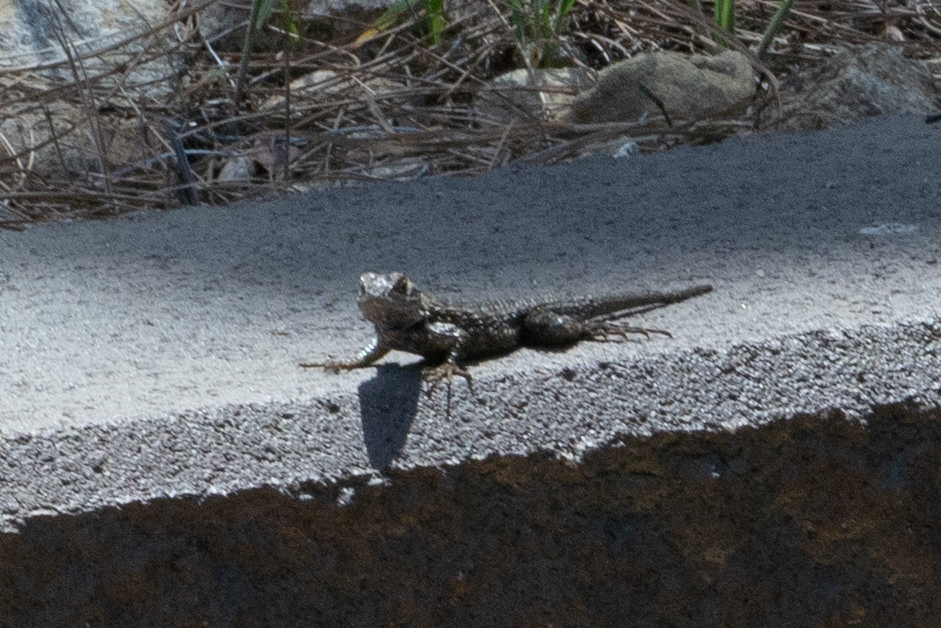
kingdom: Animalia
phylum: Chordata
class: Squamata
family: Phrynosomatidae
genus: Sceloporus
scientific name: Sceloporus occidentalis
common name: Western fence lizard
